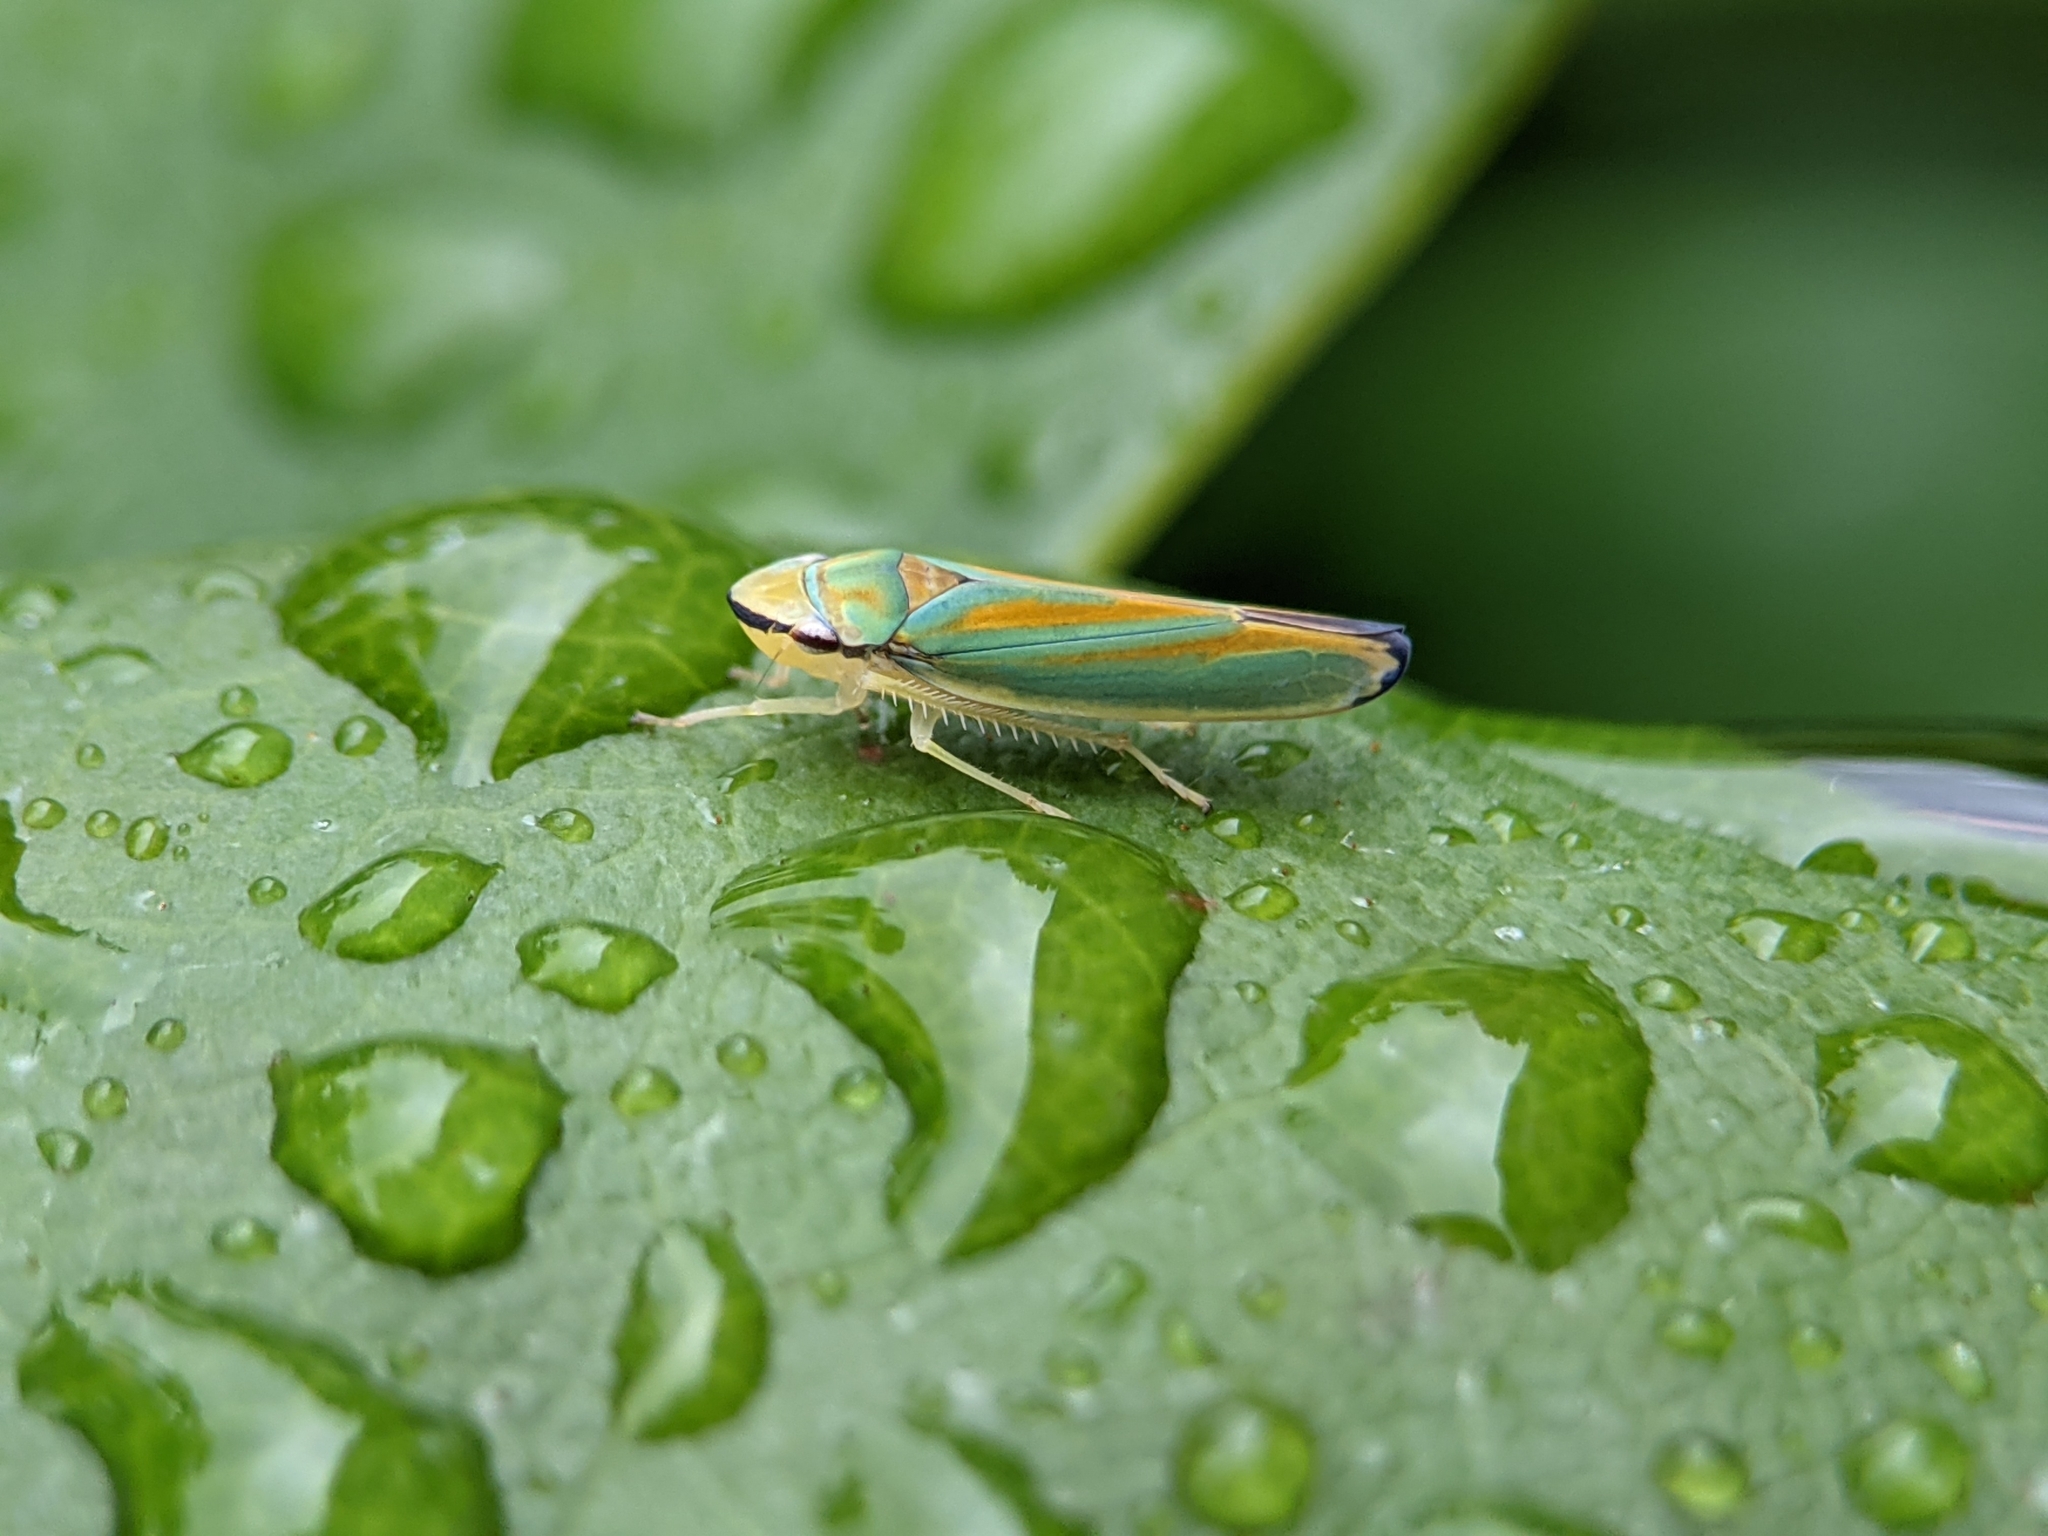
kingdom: Animalia
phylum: Arthropoda
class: Insecta
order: Hemiptera
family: Cicadellidae
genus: Graphocephala
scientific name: Graphocephala fennahi
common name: Rhododendron leafhopper
